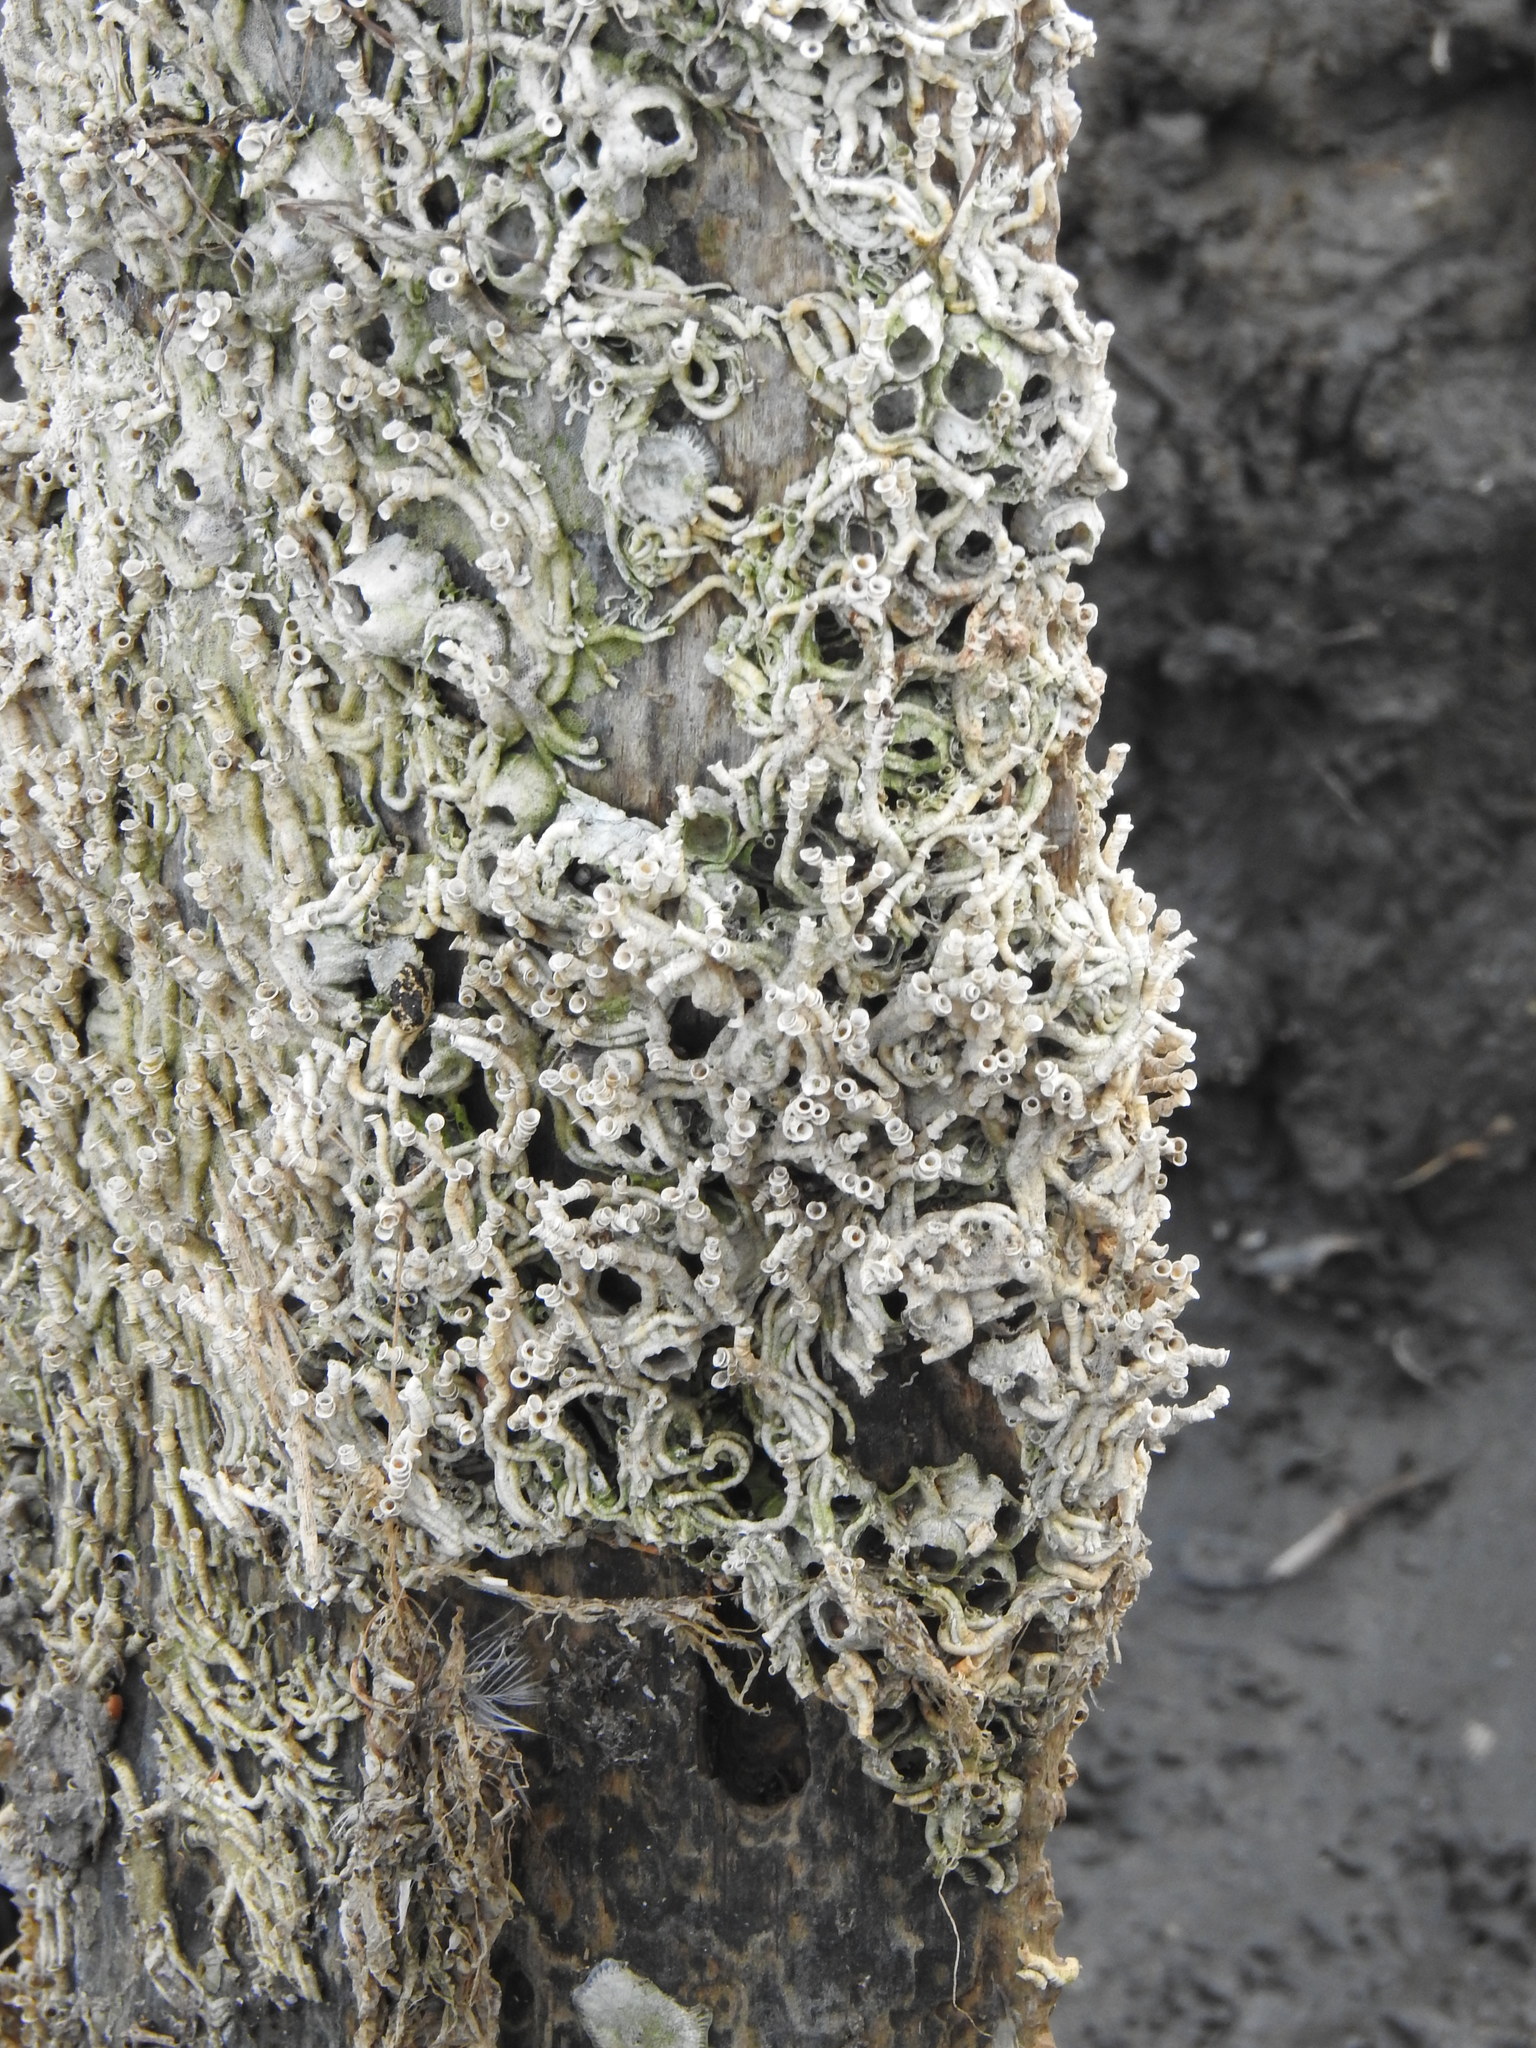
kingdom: Animalia
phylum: Annelida
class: Polychaeta
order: Sabellida
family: Serpulidae
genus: Ficopomatus
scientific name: Ficopomatus enigmaticus
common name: Australian tubeworm
